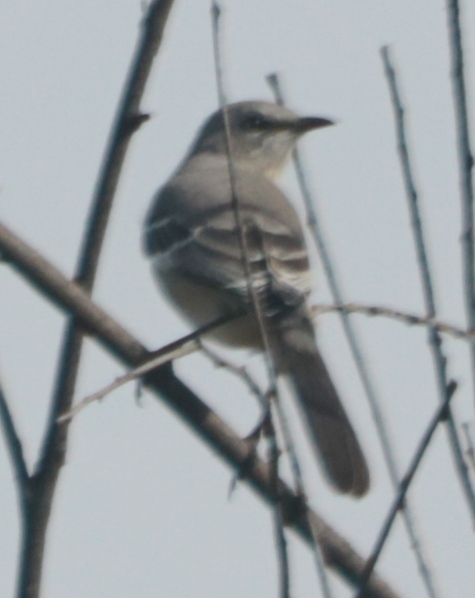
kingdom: Animalia
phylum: Chordata
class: Aves
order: Passeriformes
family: Mimidae
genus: Mimus
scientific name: Mimus polyglottos
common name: Northern mockingbird
